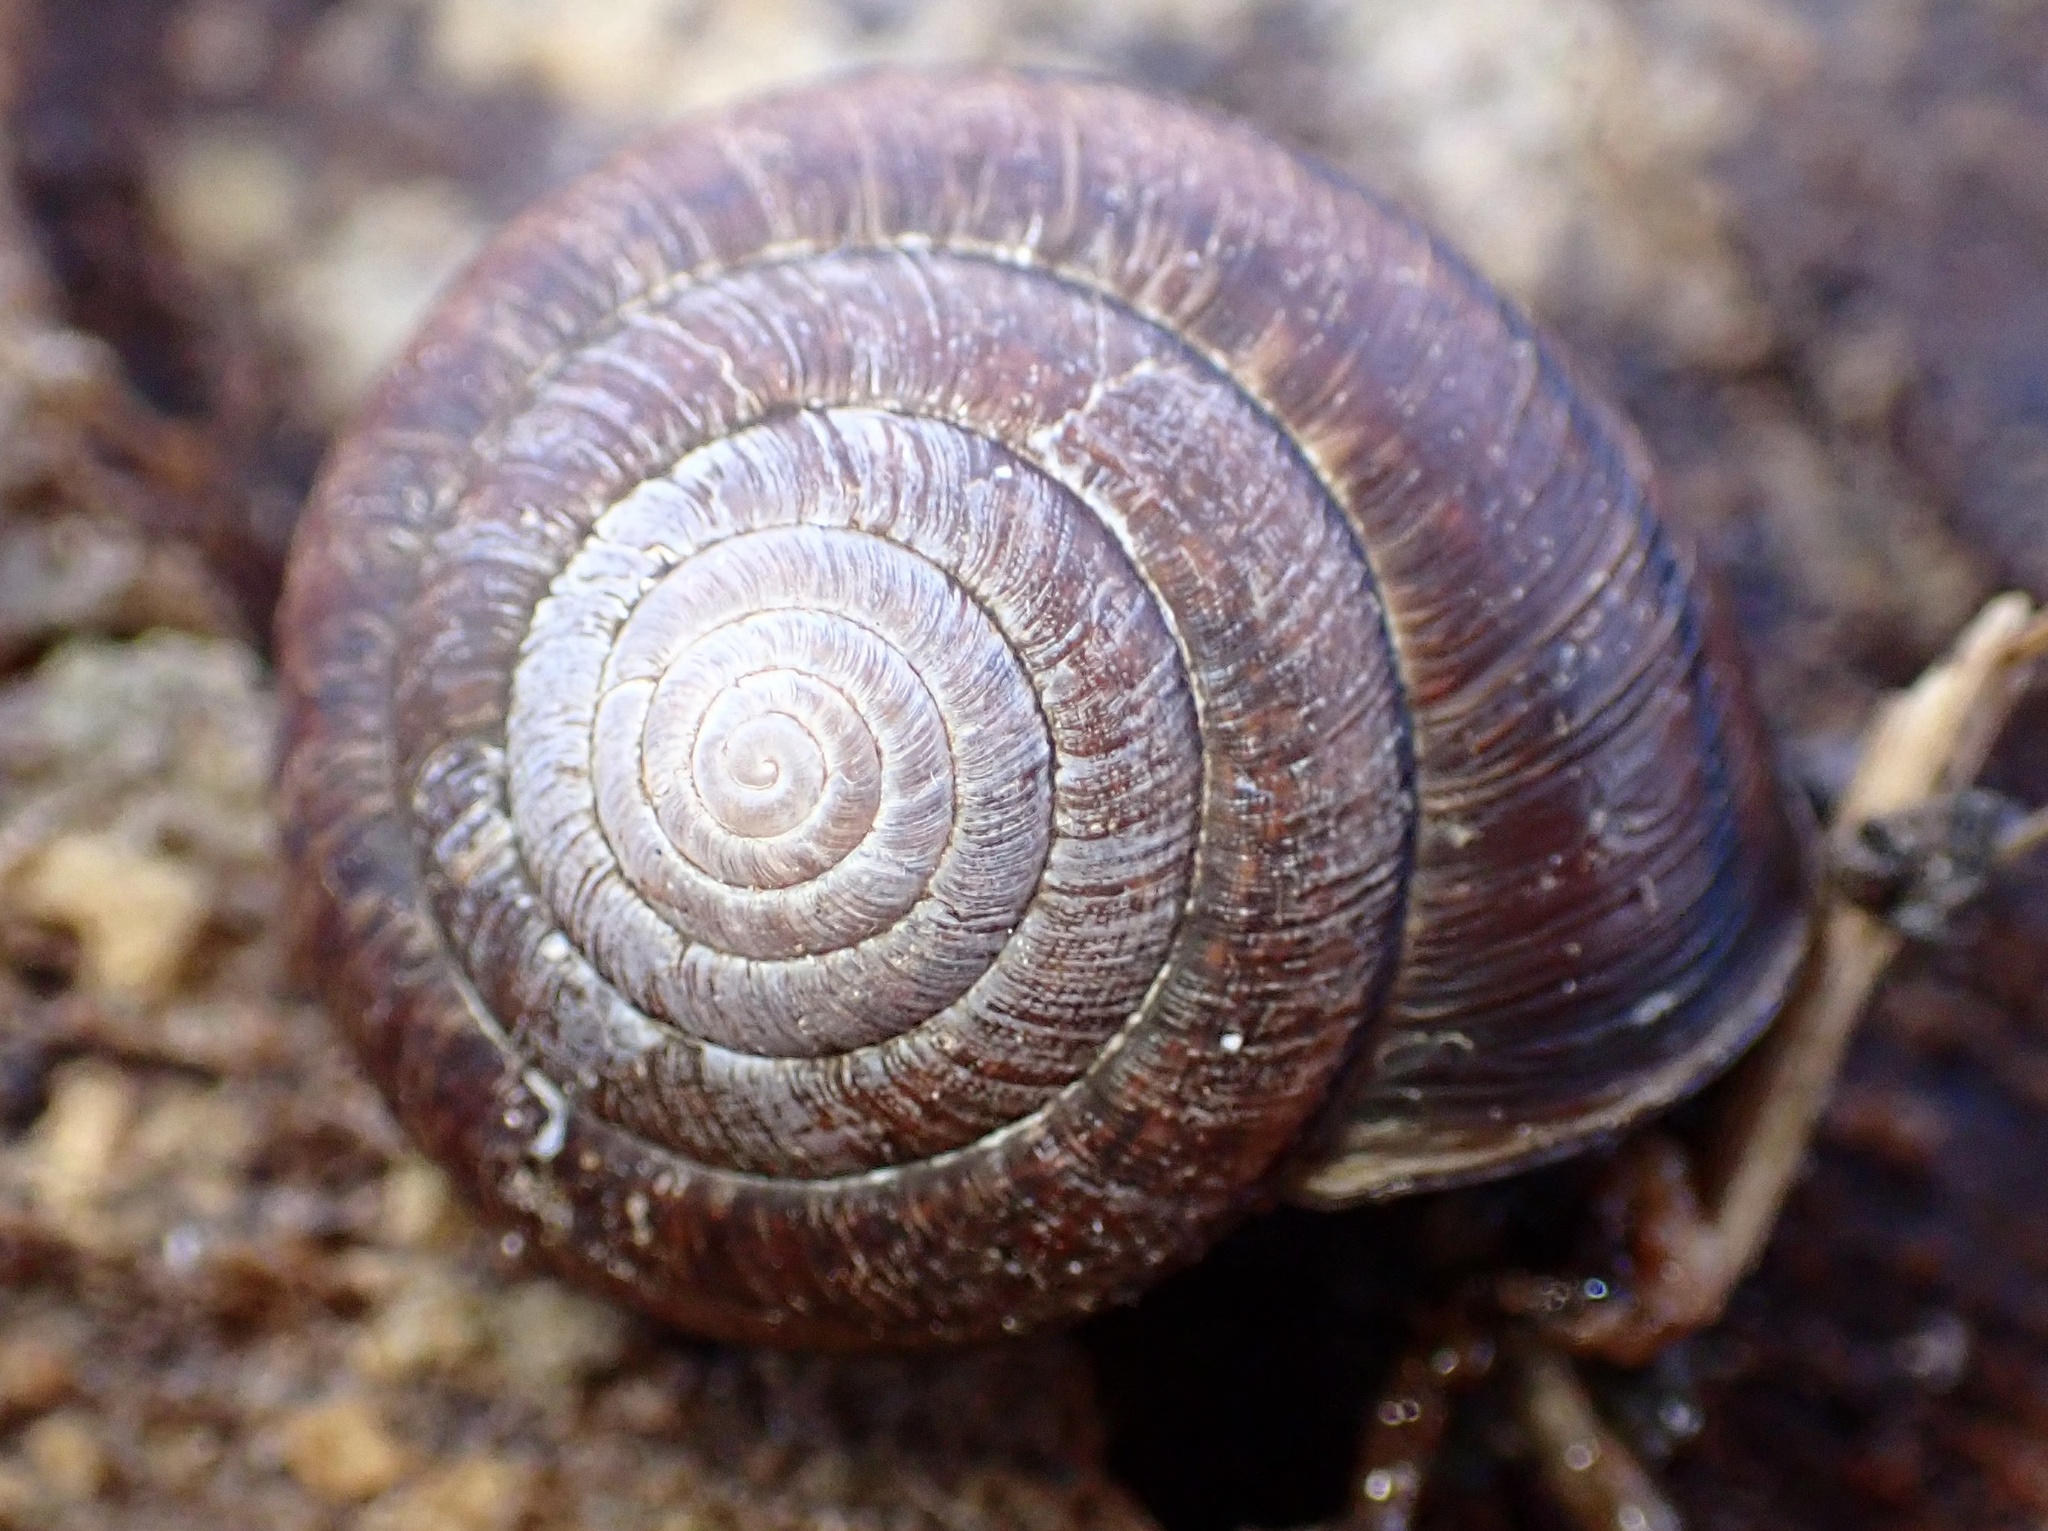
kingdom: Animalia
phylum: Mollusca
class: Gastropoda
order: Stylommatophora
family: Xanthonychidae
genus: Helminthoglypta
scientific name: Helminthoglypta arrosa
